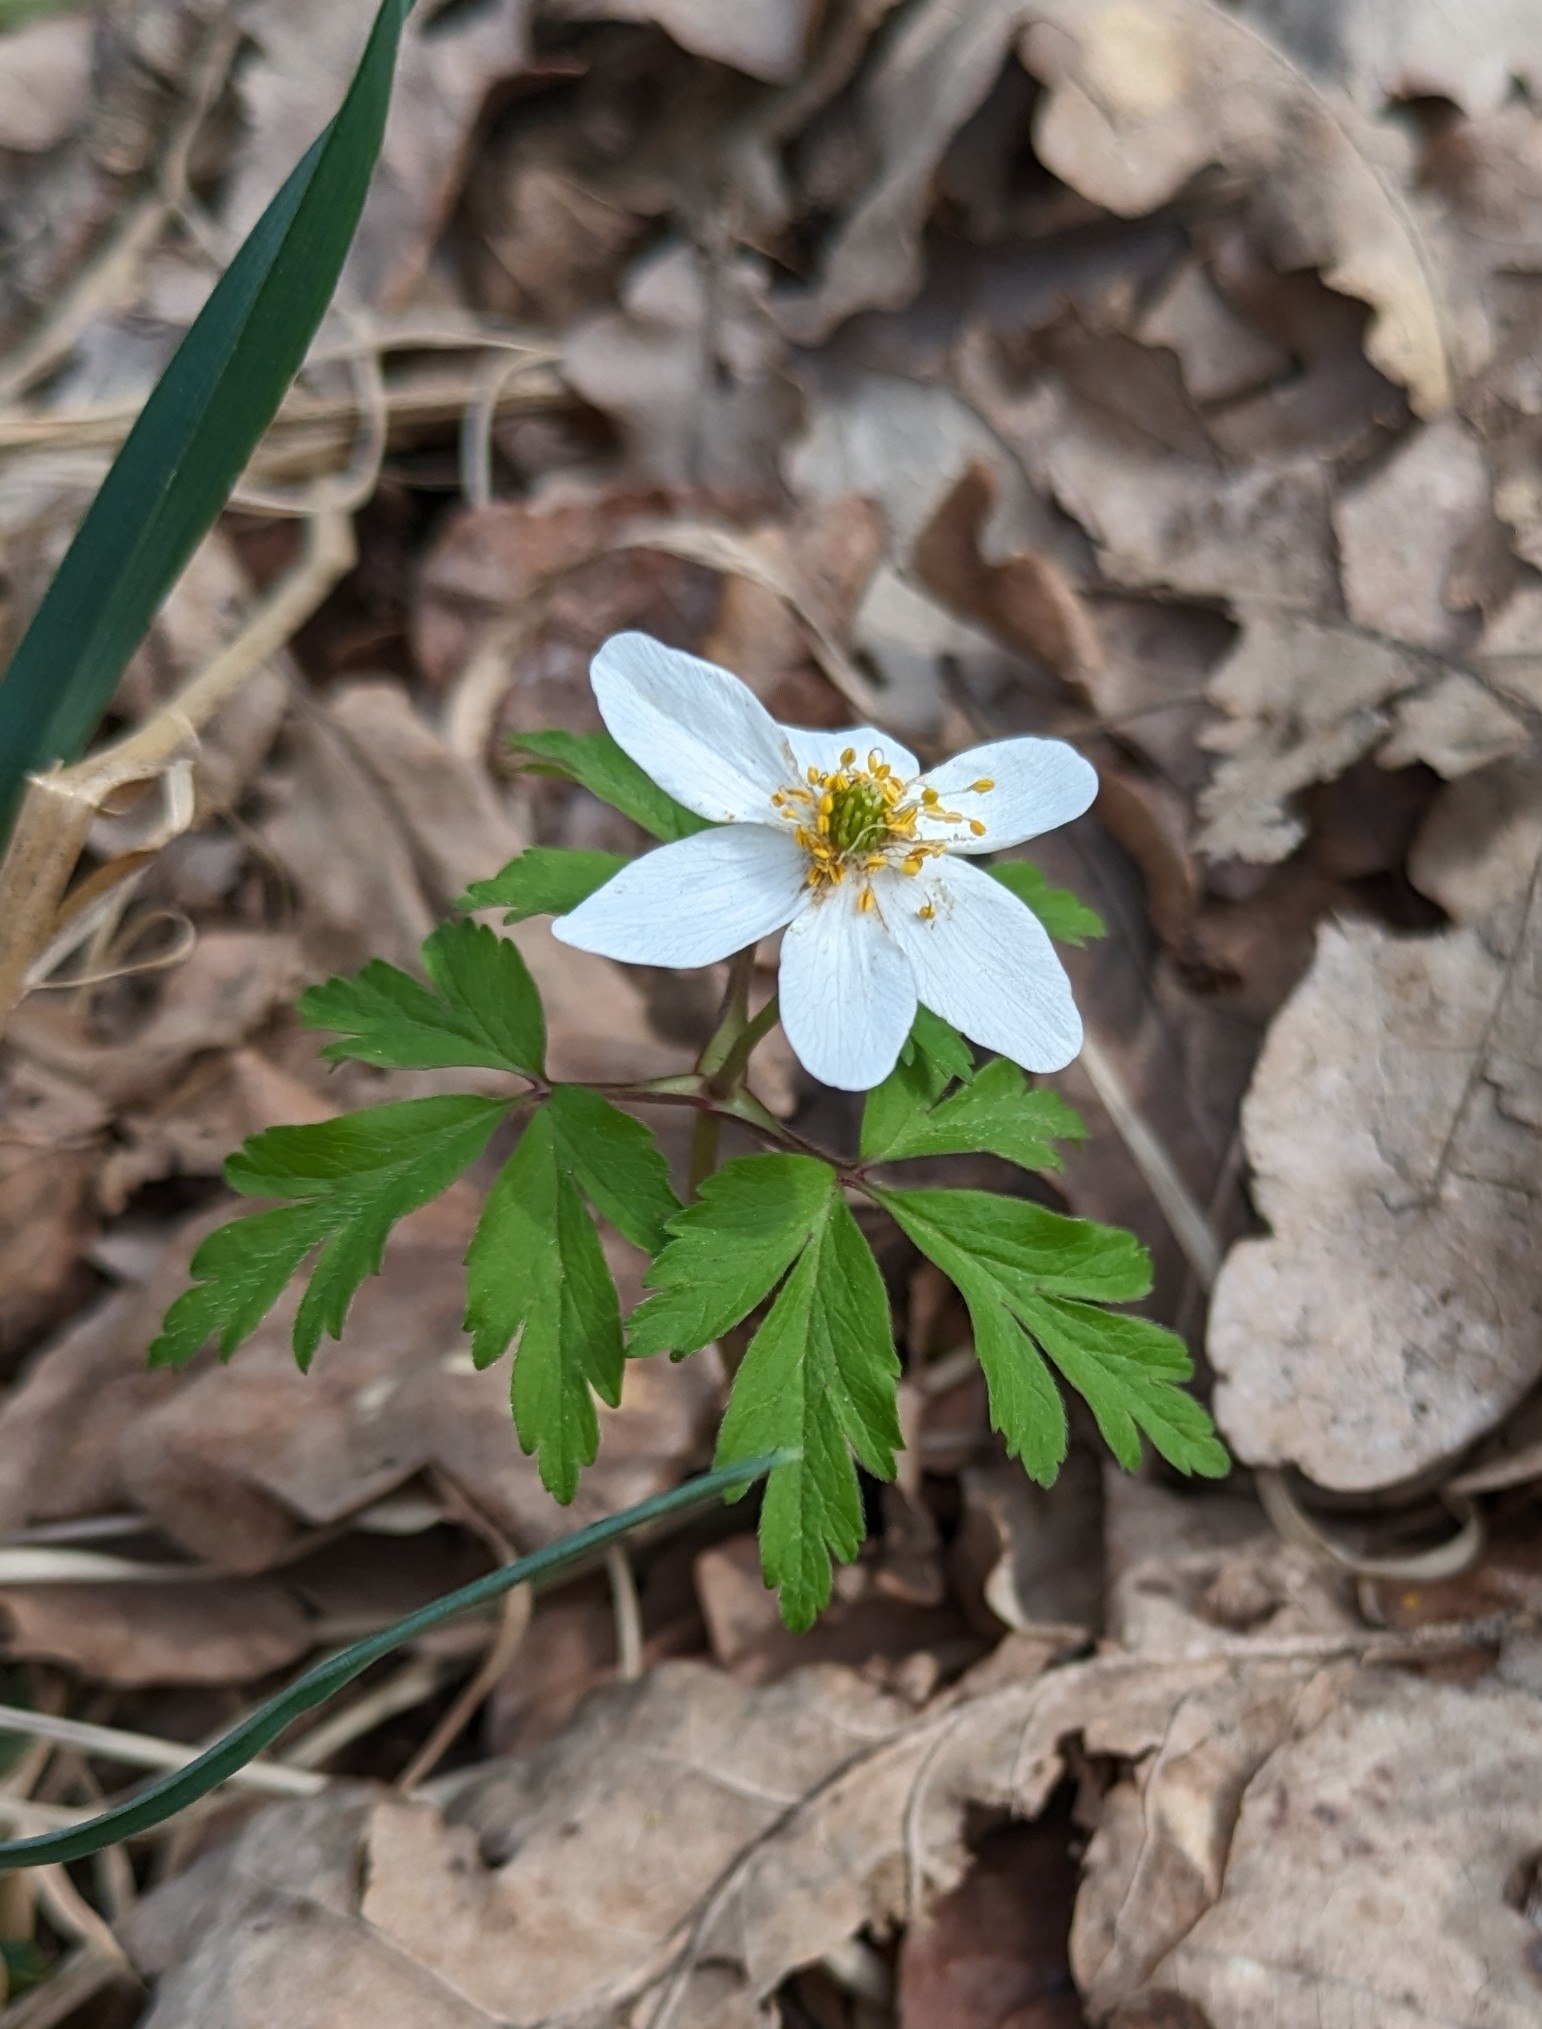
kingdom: Plantae
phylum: Tracheophyta
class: Magnoliopsida
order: Ranunculales
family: Ranunculaceae
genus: Anemone
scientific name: Anemone nemorosa
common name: Wood anemone
